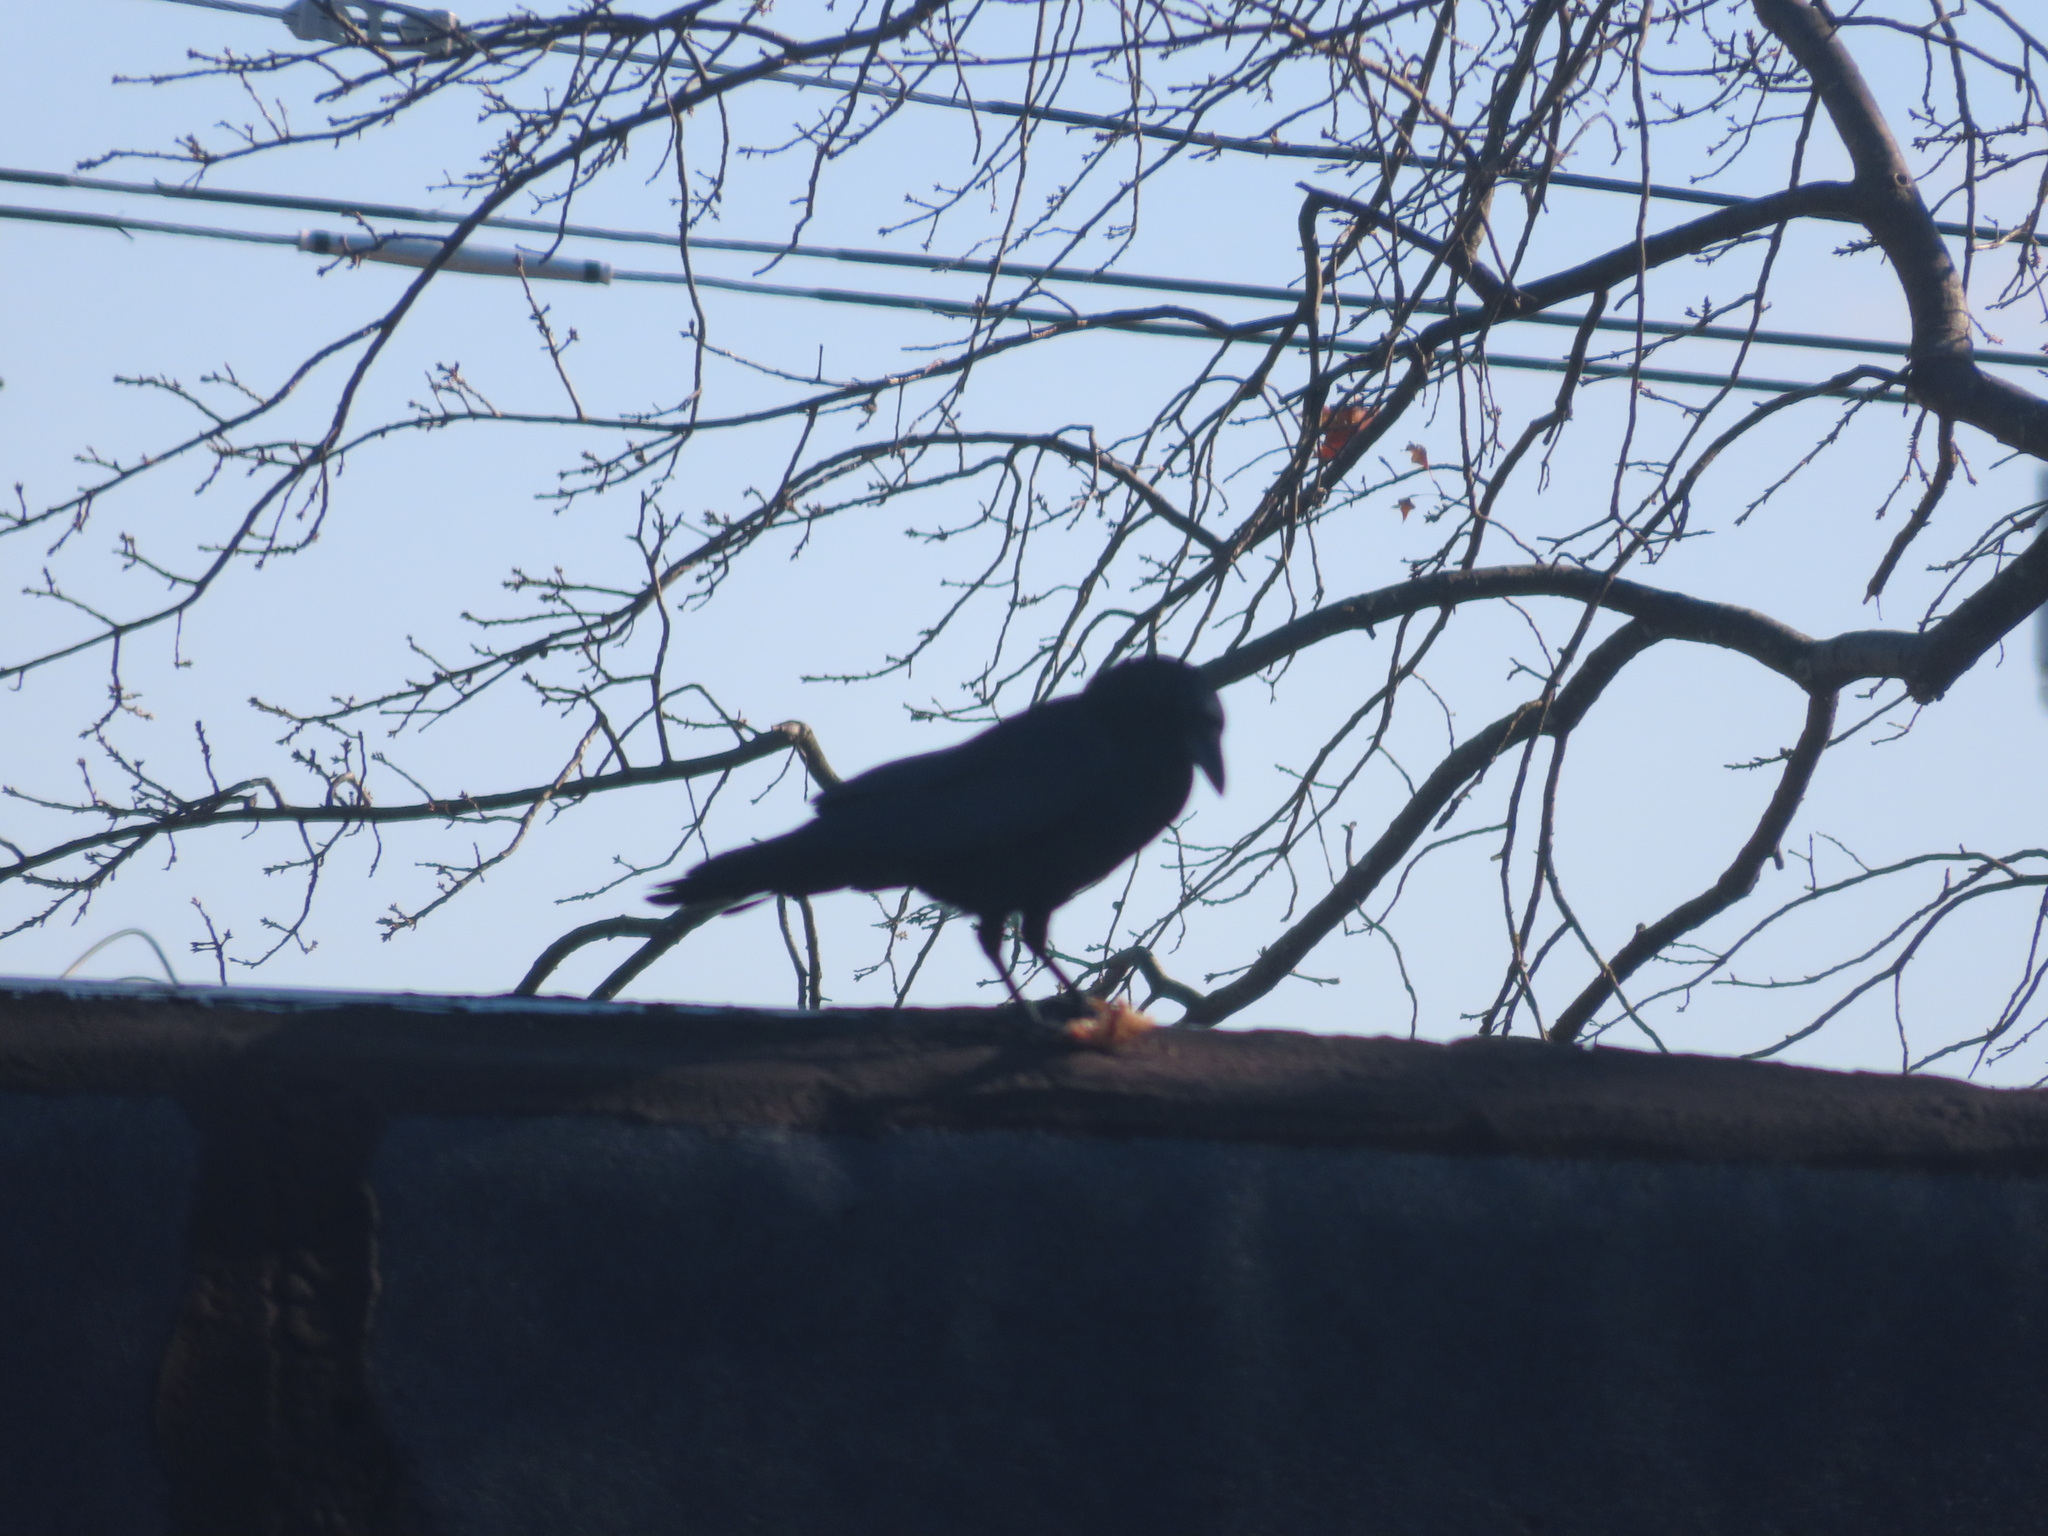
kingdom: Animalia
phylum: Chordata
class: Aves
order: Passeriformes
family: Corvidae
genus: Corvus
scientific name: Corvus brachyrhynchos
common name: American crow
